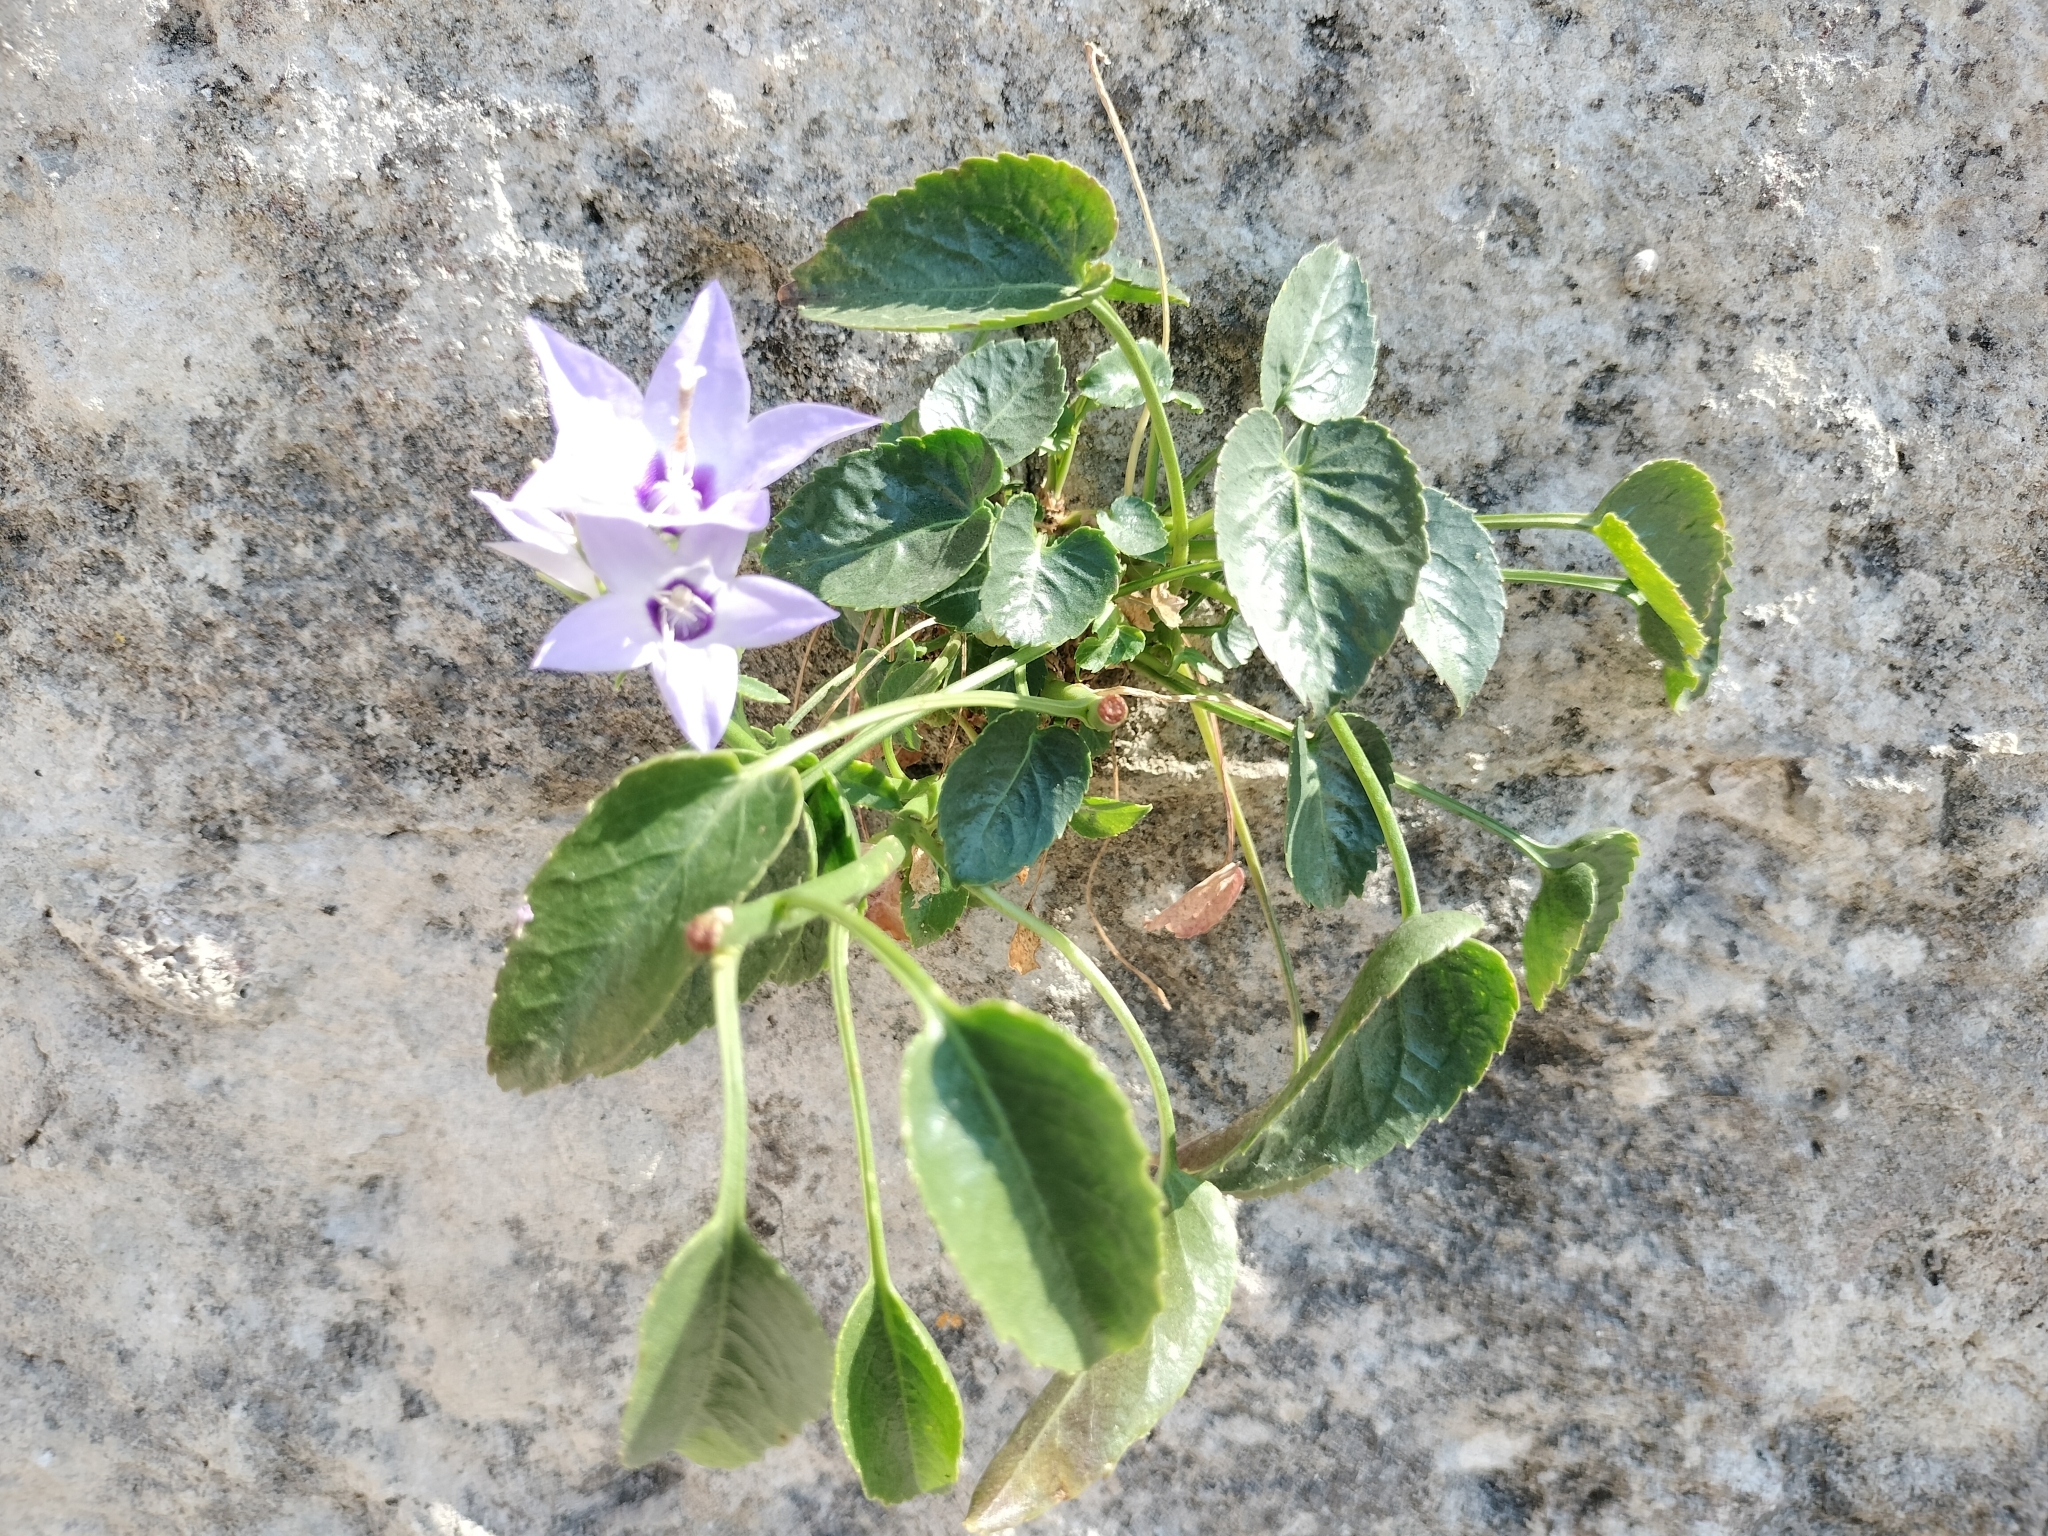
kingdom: Plantae
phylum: Tracheophyta
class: Magnoliopsida
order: Asterales
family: Campanulaceae
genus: Campanula
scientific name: Campanula versicolor
